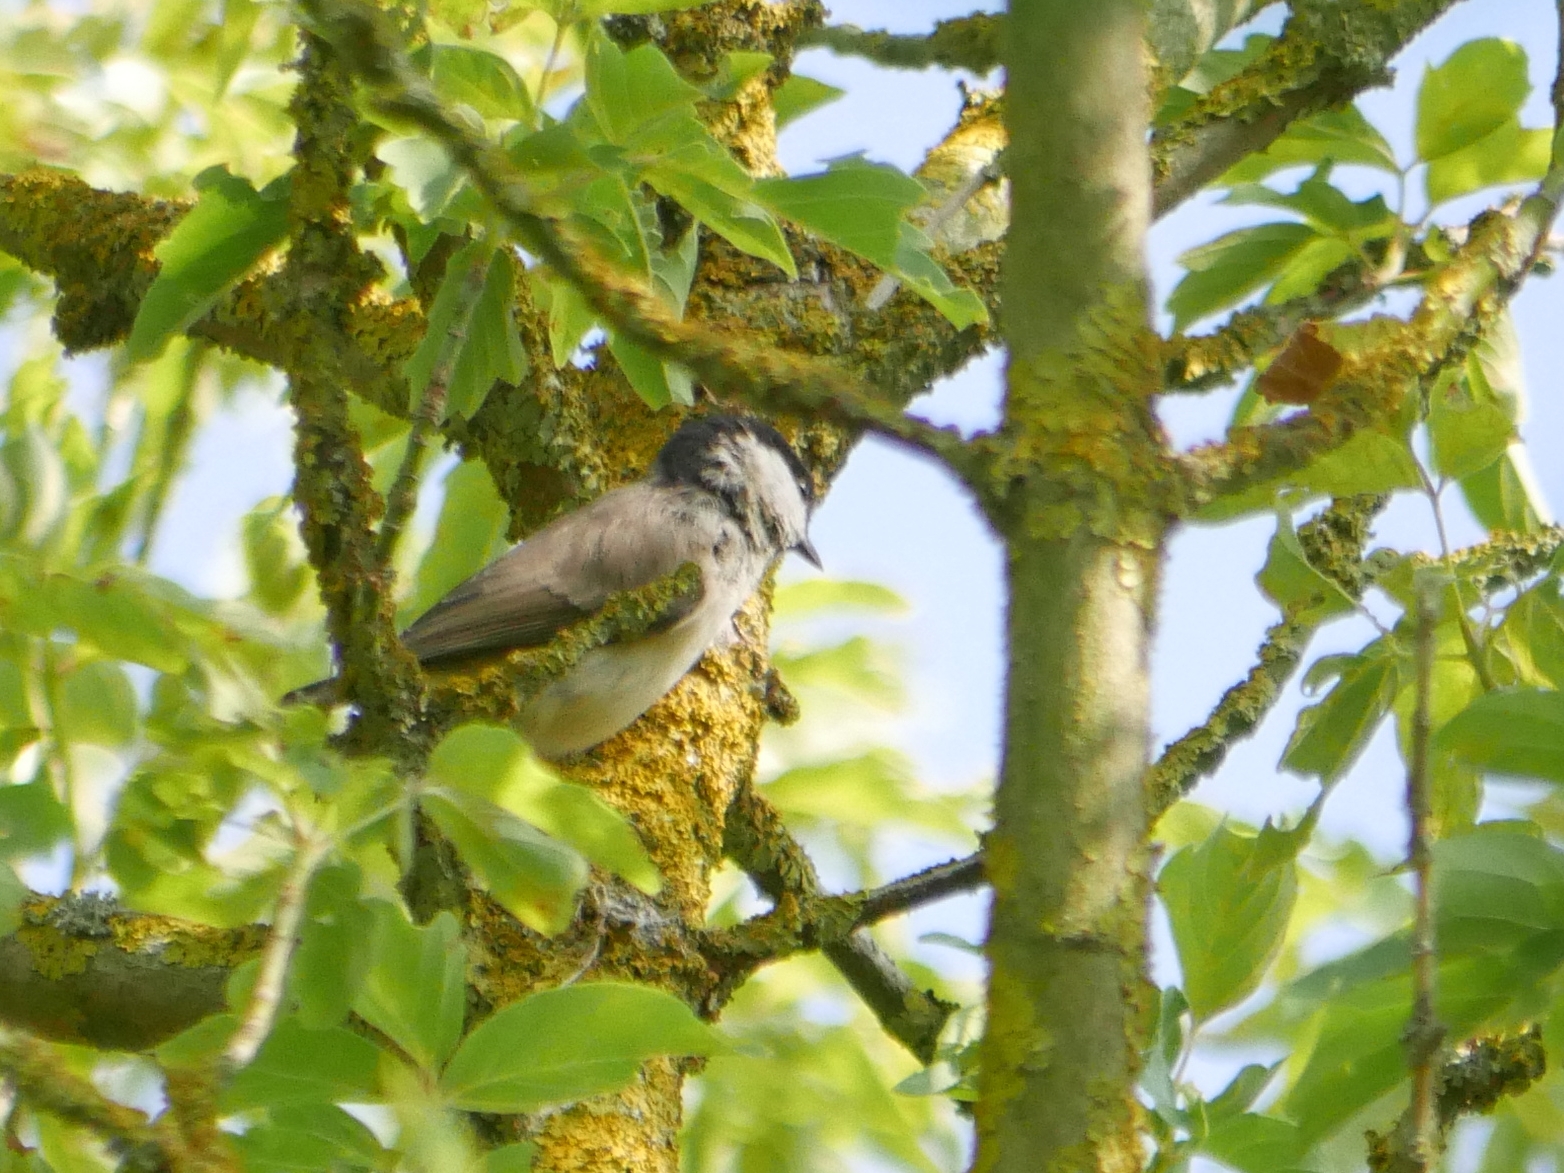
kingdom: Animalia
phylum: Chordata
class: Aves
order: Passeriformes
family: Paridae
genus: Poecile
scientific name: Poecile palustris
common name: Marsh tit
